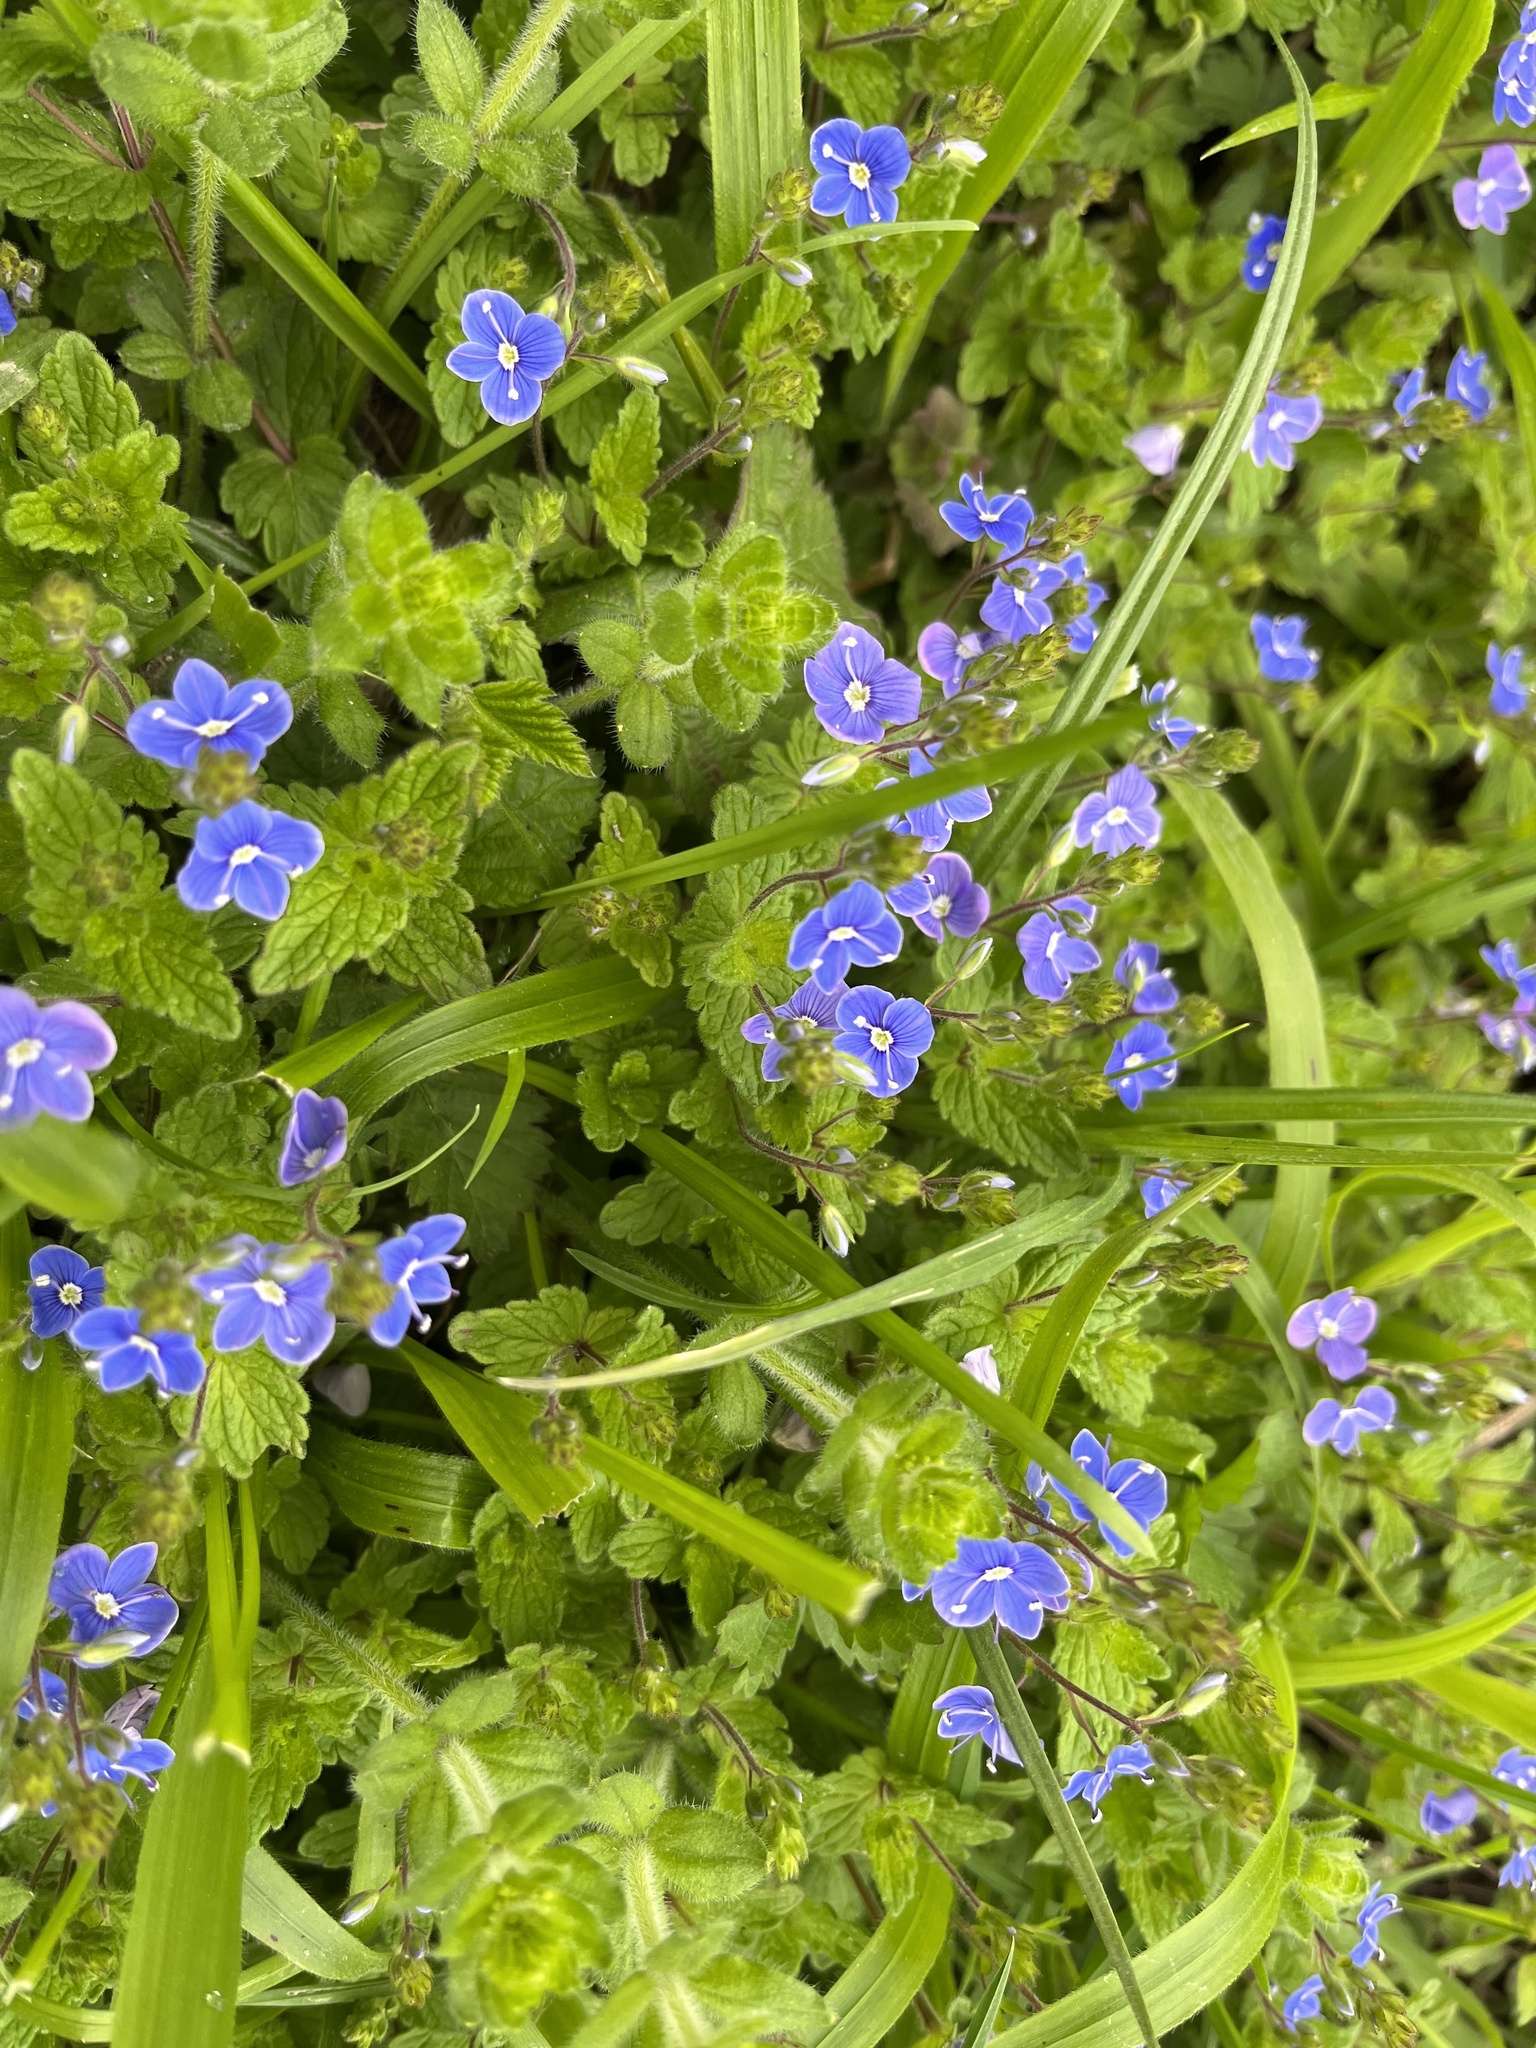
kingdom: Plantae
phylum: Tracheophyta
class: Magnoliopsida
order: Lamiales
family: Plantaginaceae
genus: Veronica
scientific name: Veronica chamaedrys
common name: Germander speedwell
